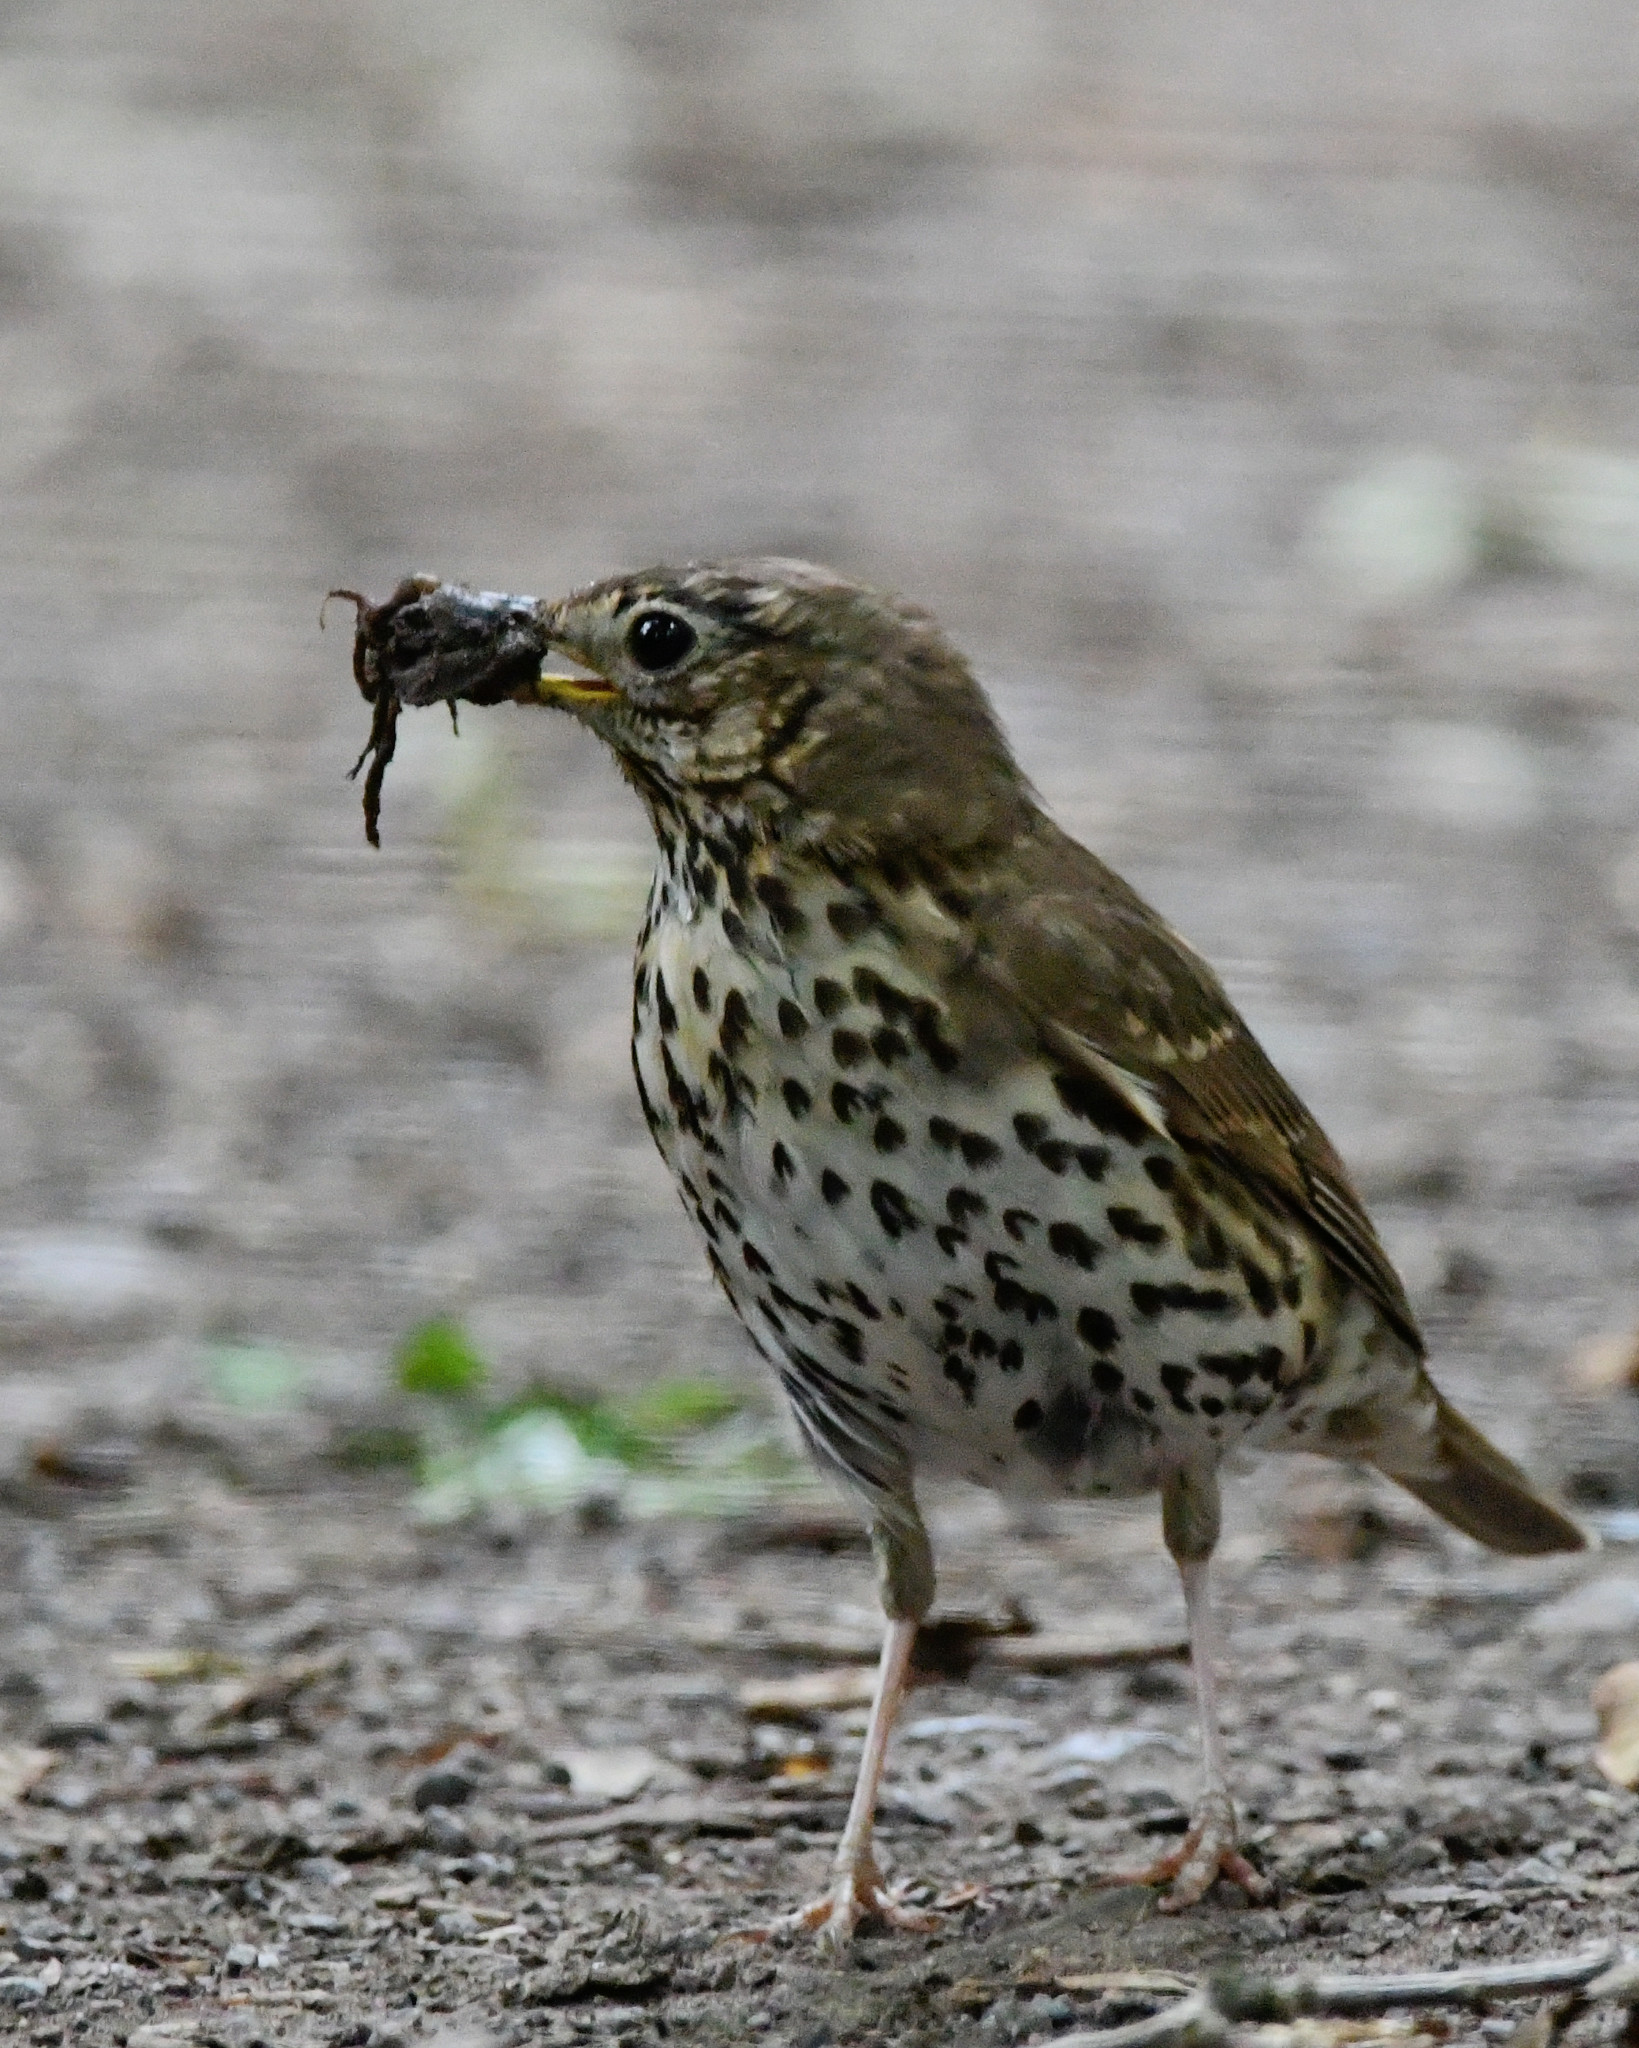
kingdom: Animalia
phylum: Chordata
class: Aves
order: Passeriformes
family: Turdidae
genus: Turdus
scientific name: Turdus philomelos
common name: Song thrush
